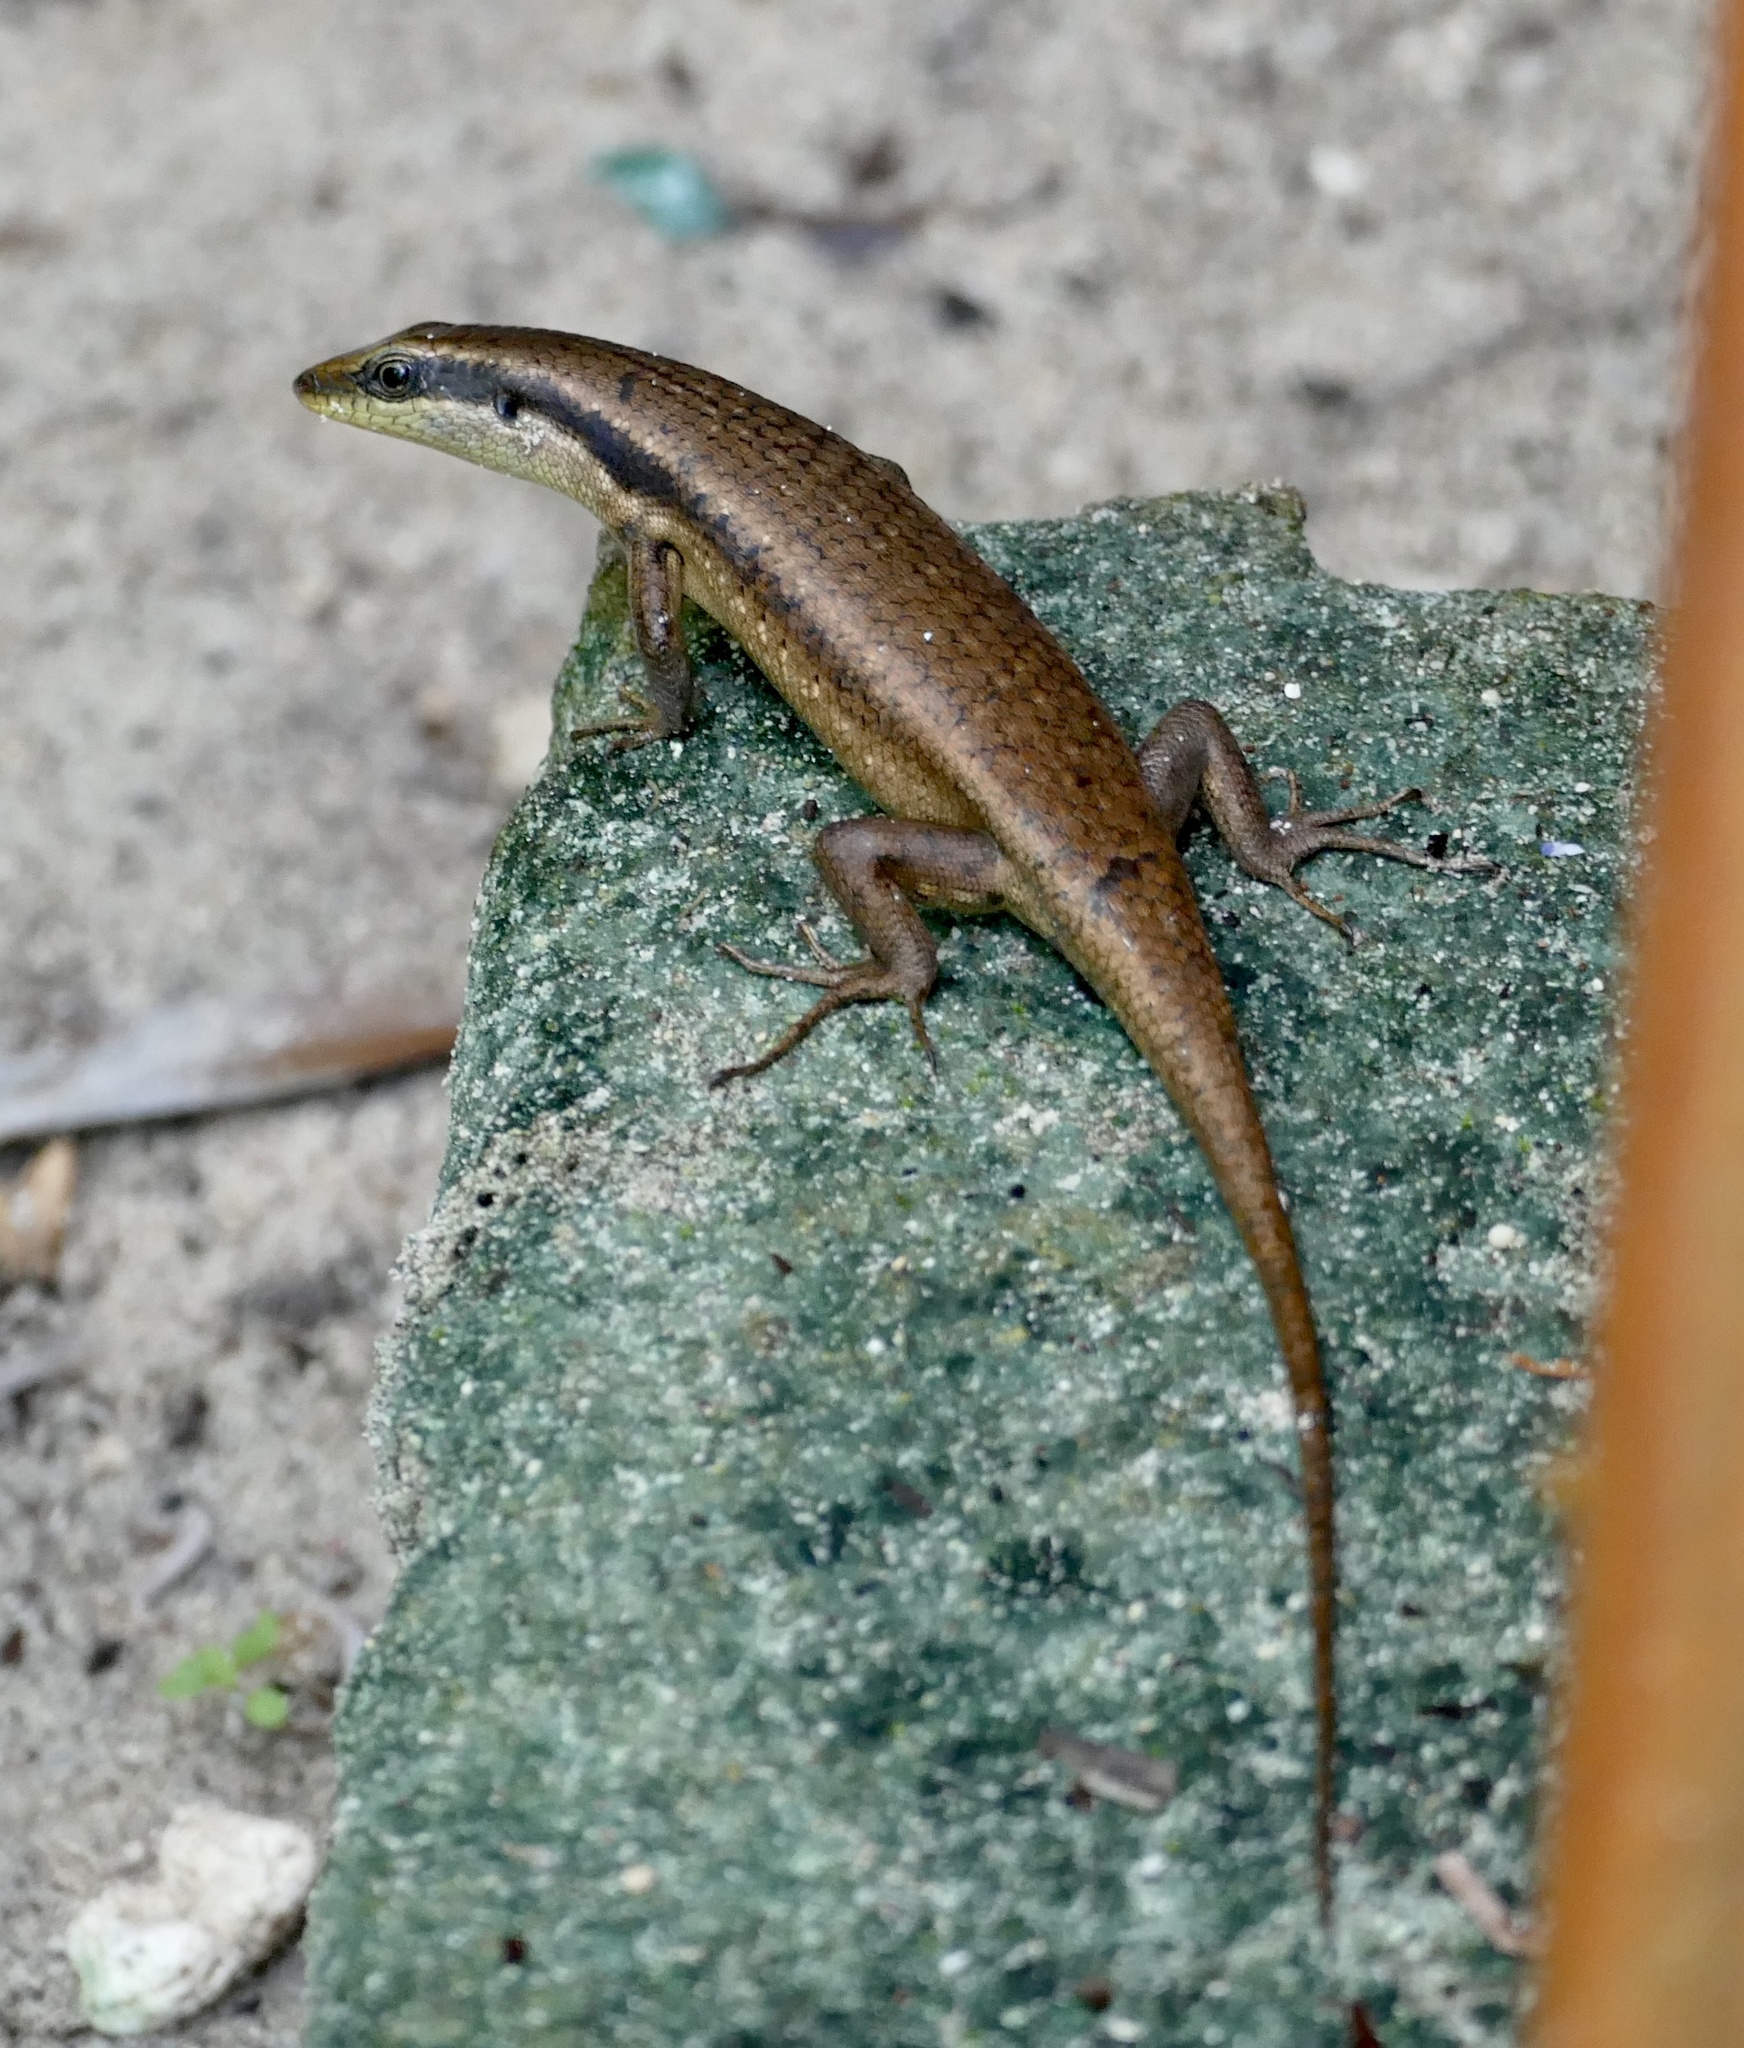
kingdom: Animalia
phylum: Chordata
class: Squamata
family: Scincidae
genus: Eutropis
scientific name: Eutropis rudis
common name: Rough mabuya
